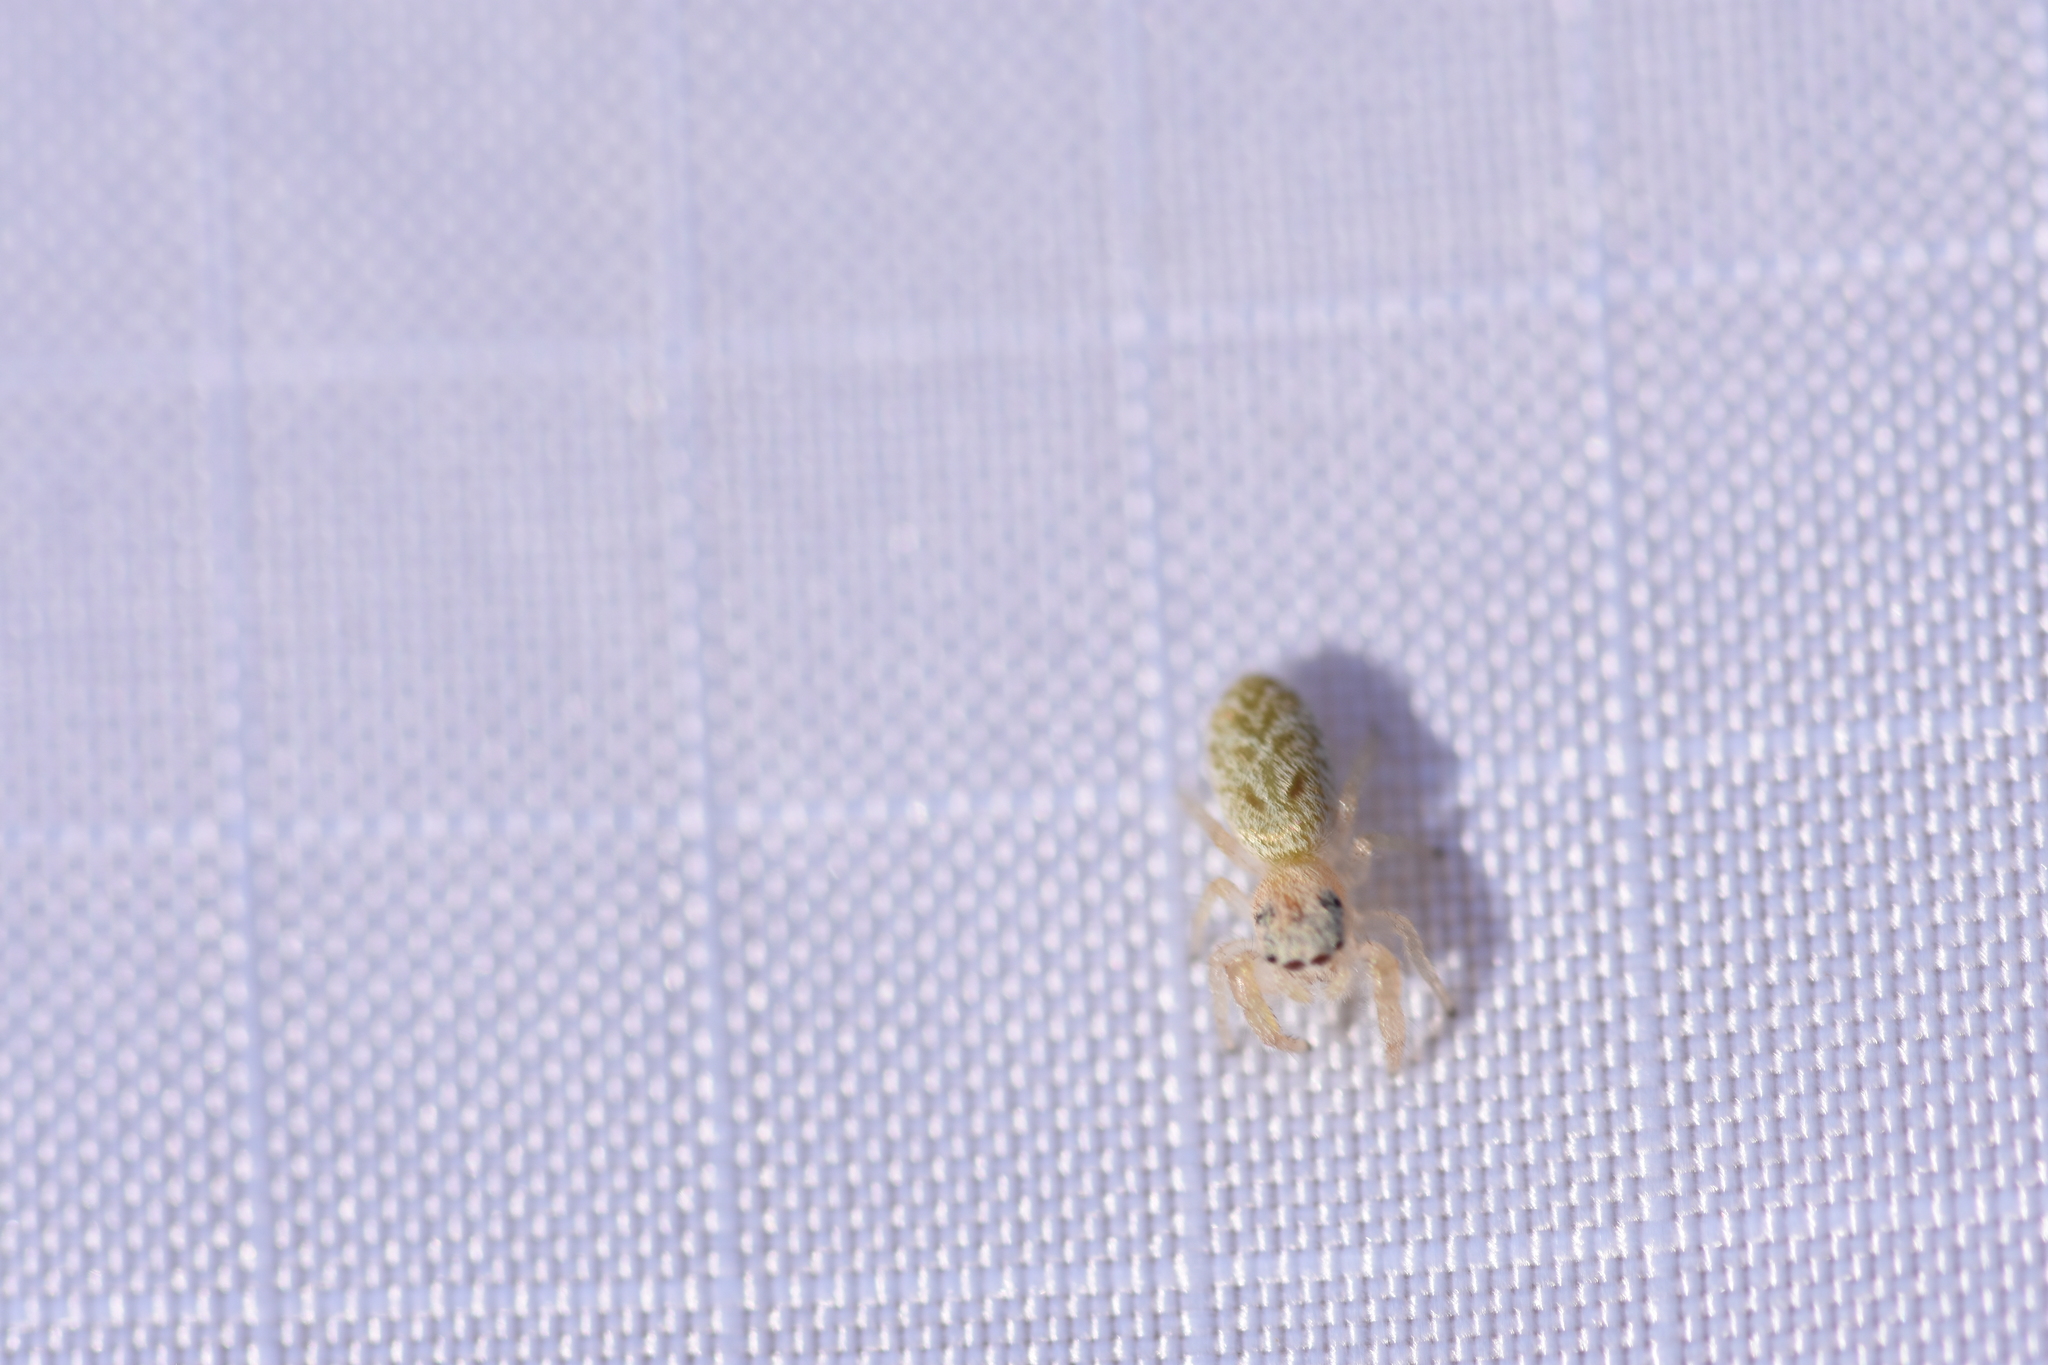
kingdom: Animalia
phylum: Arthropoda
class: Arachnida
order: Araneae
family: Salticidae
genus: Metaphidippus
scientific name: Metaphidippus siticulosus
